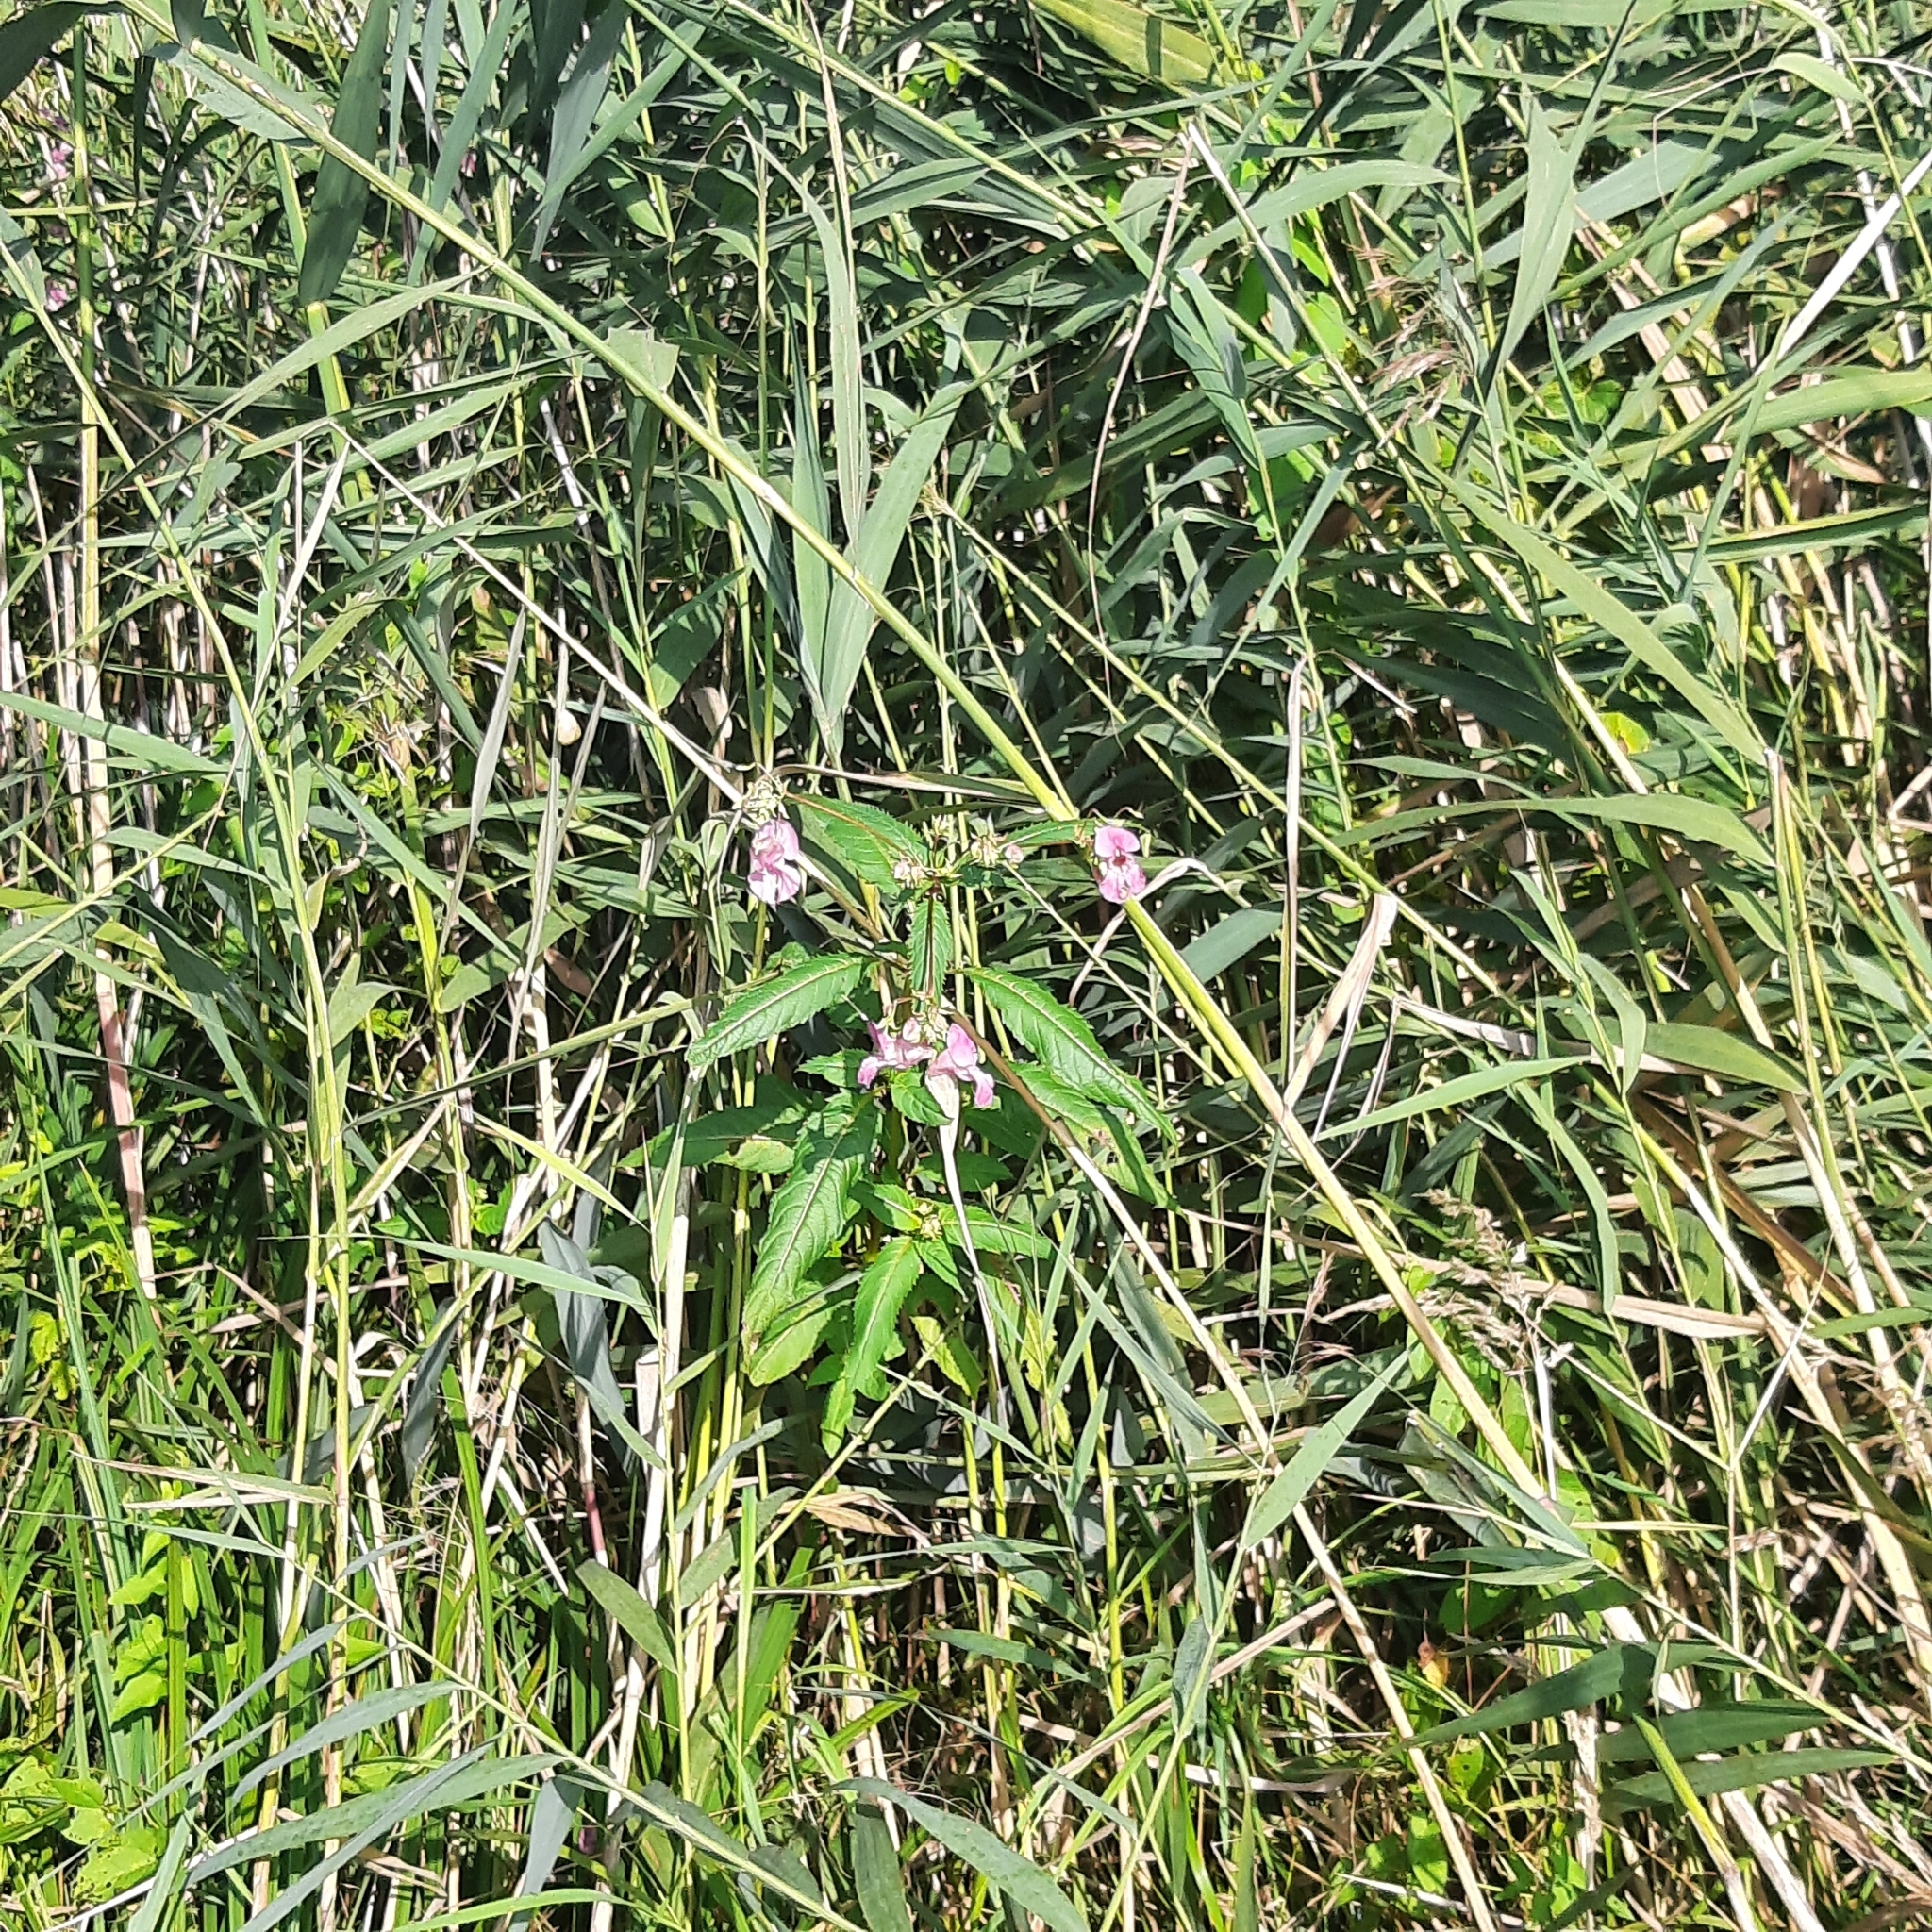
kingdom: Plantae
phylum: Tracheophyta
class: Magnoliopsida
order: Ericales
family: Balsaminaceae
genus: Impatiens
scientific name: Impatiens glandulifera
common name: Himalayan balsam
